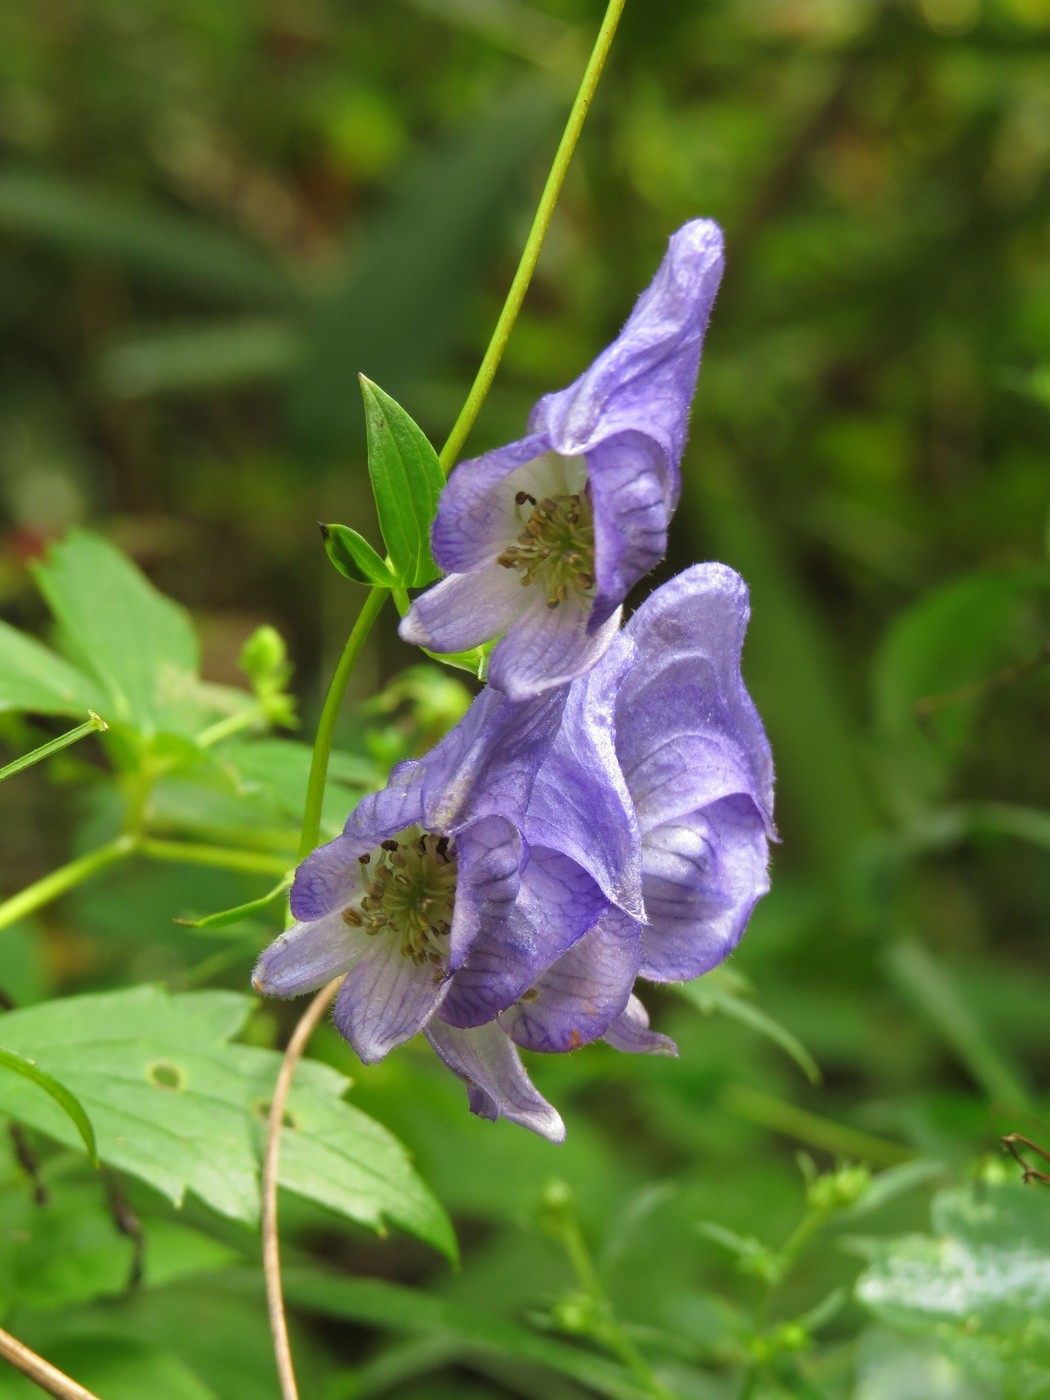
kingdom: Plantae
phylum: Tracheophyta
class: Magnoliopsida
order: Ranunculales
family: Ranunculaceae
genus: Aconitum
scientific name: Aconitum uncinatum
